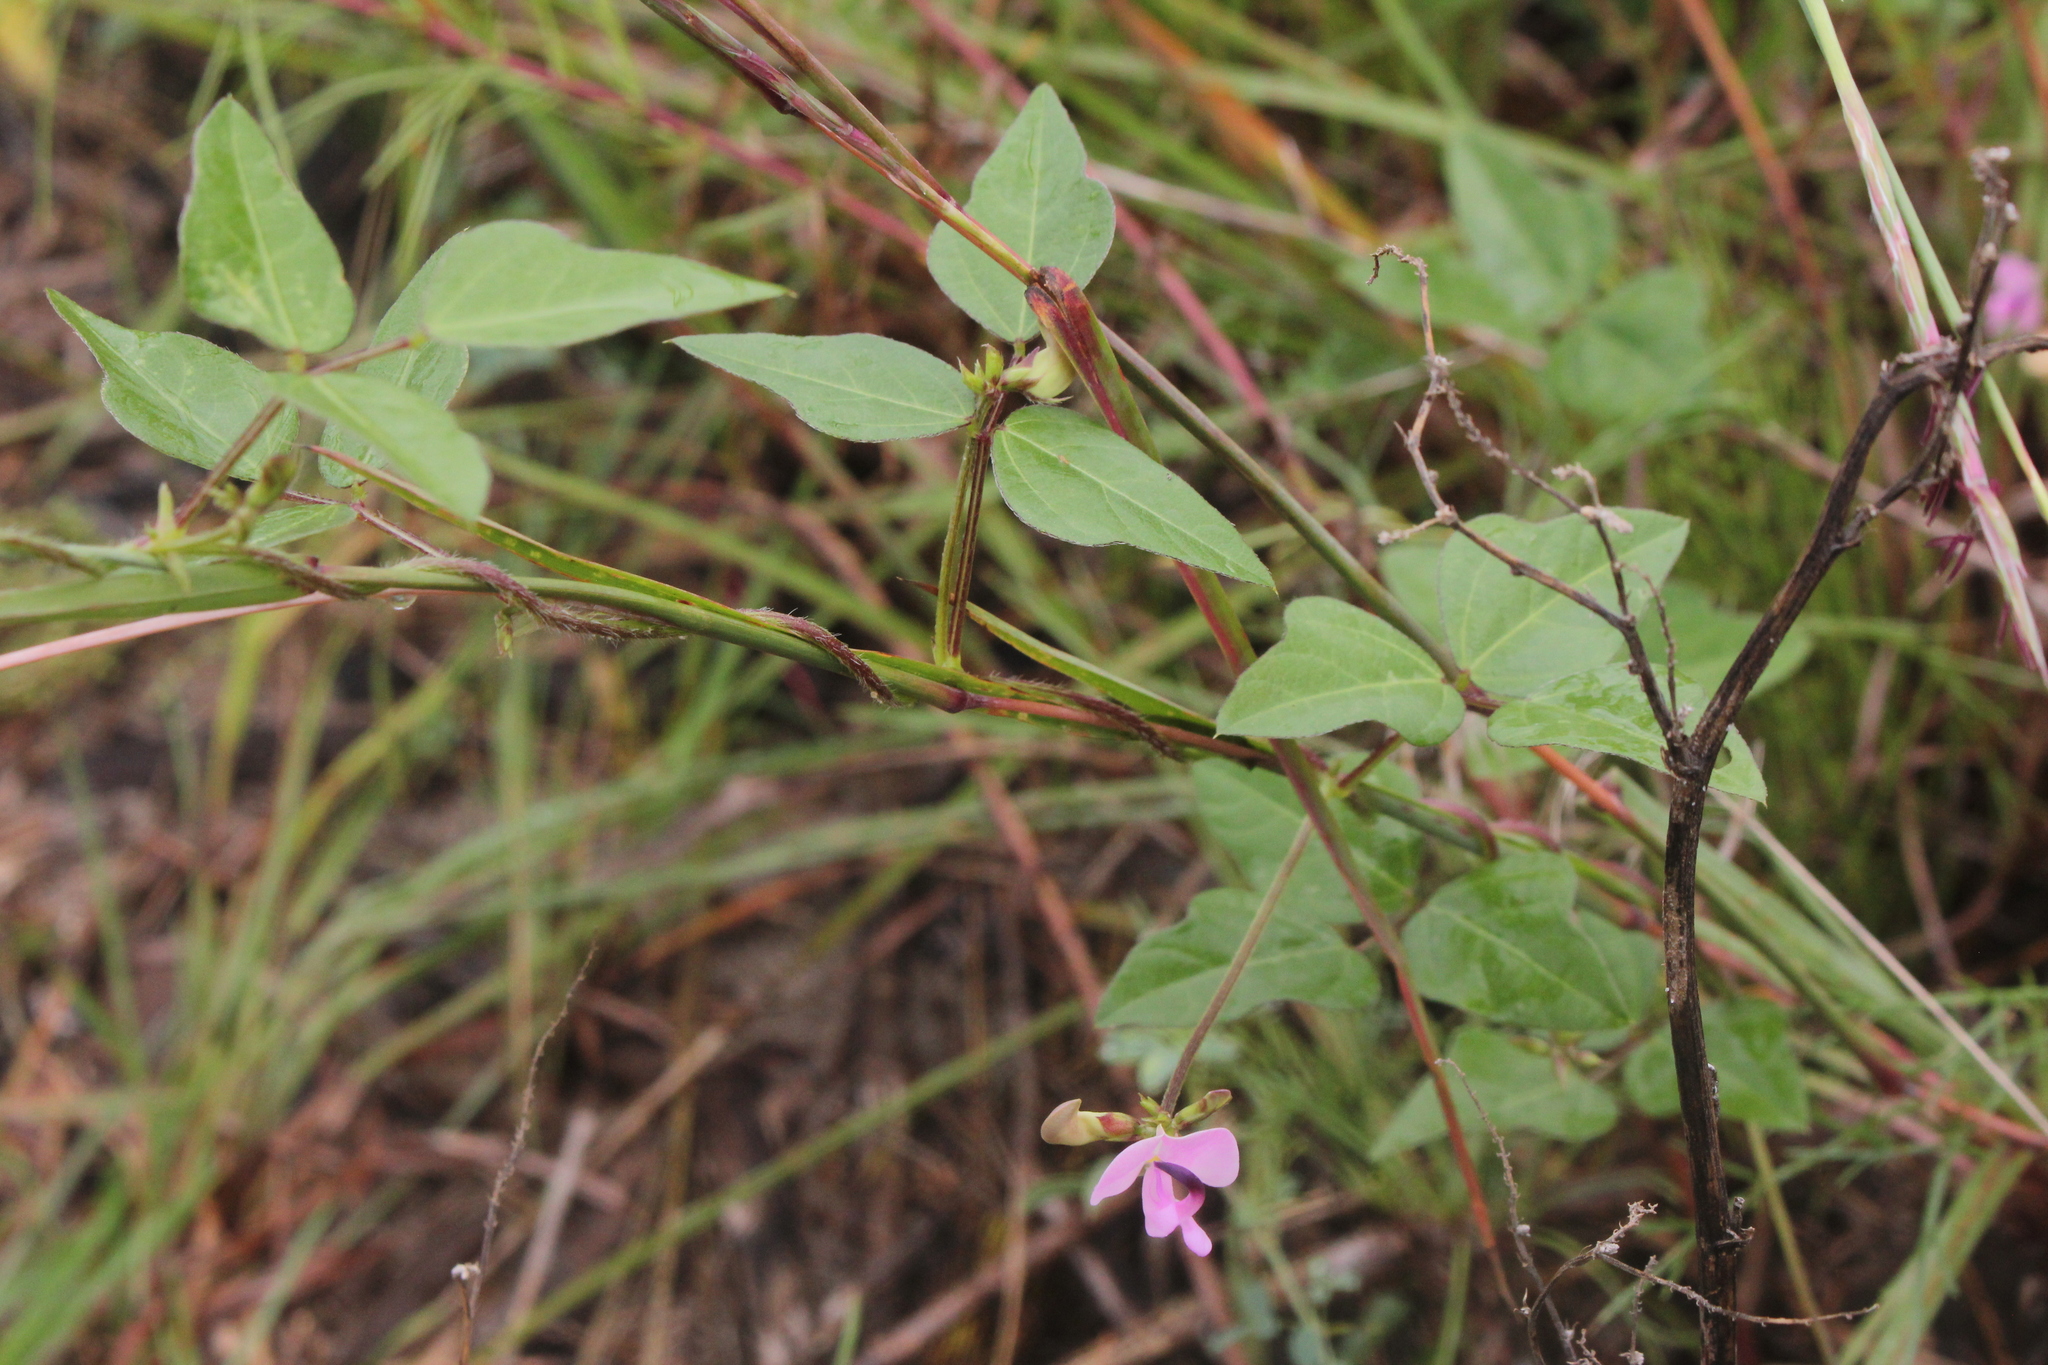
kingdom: Plantae
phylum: Tracheophyta
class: Magnoliopsida
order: Fabales
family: Fabaceae
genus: Strophostyles
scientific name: Strophostyles helvola
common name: Trailing wild bean
